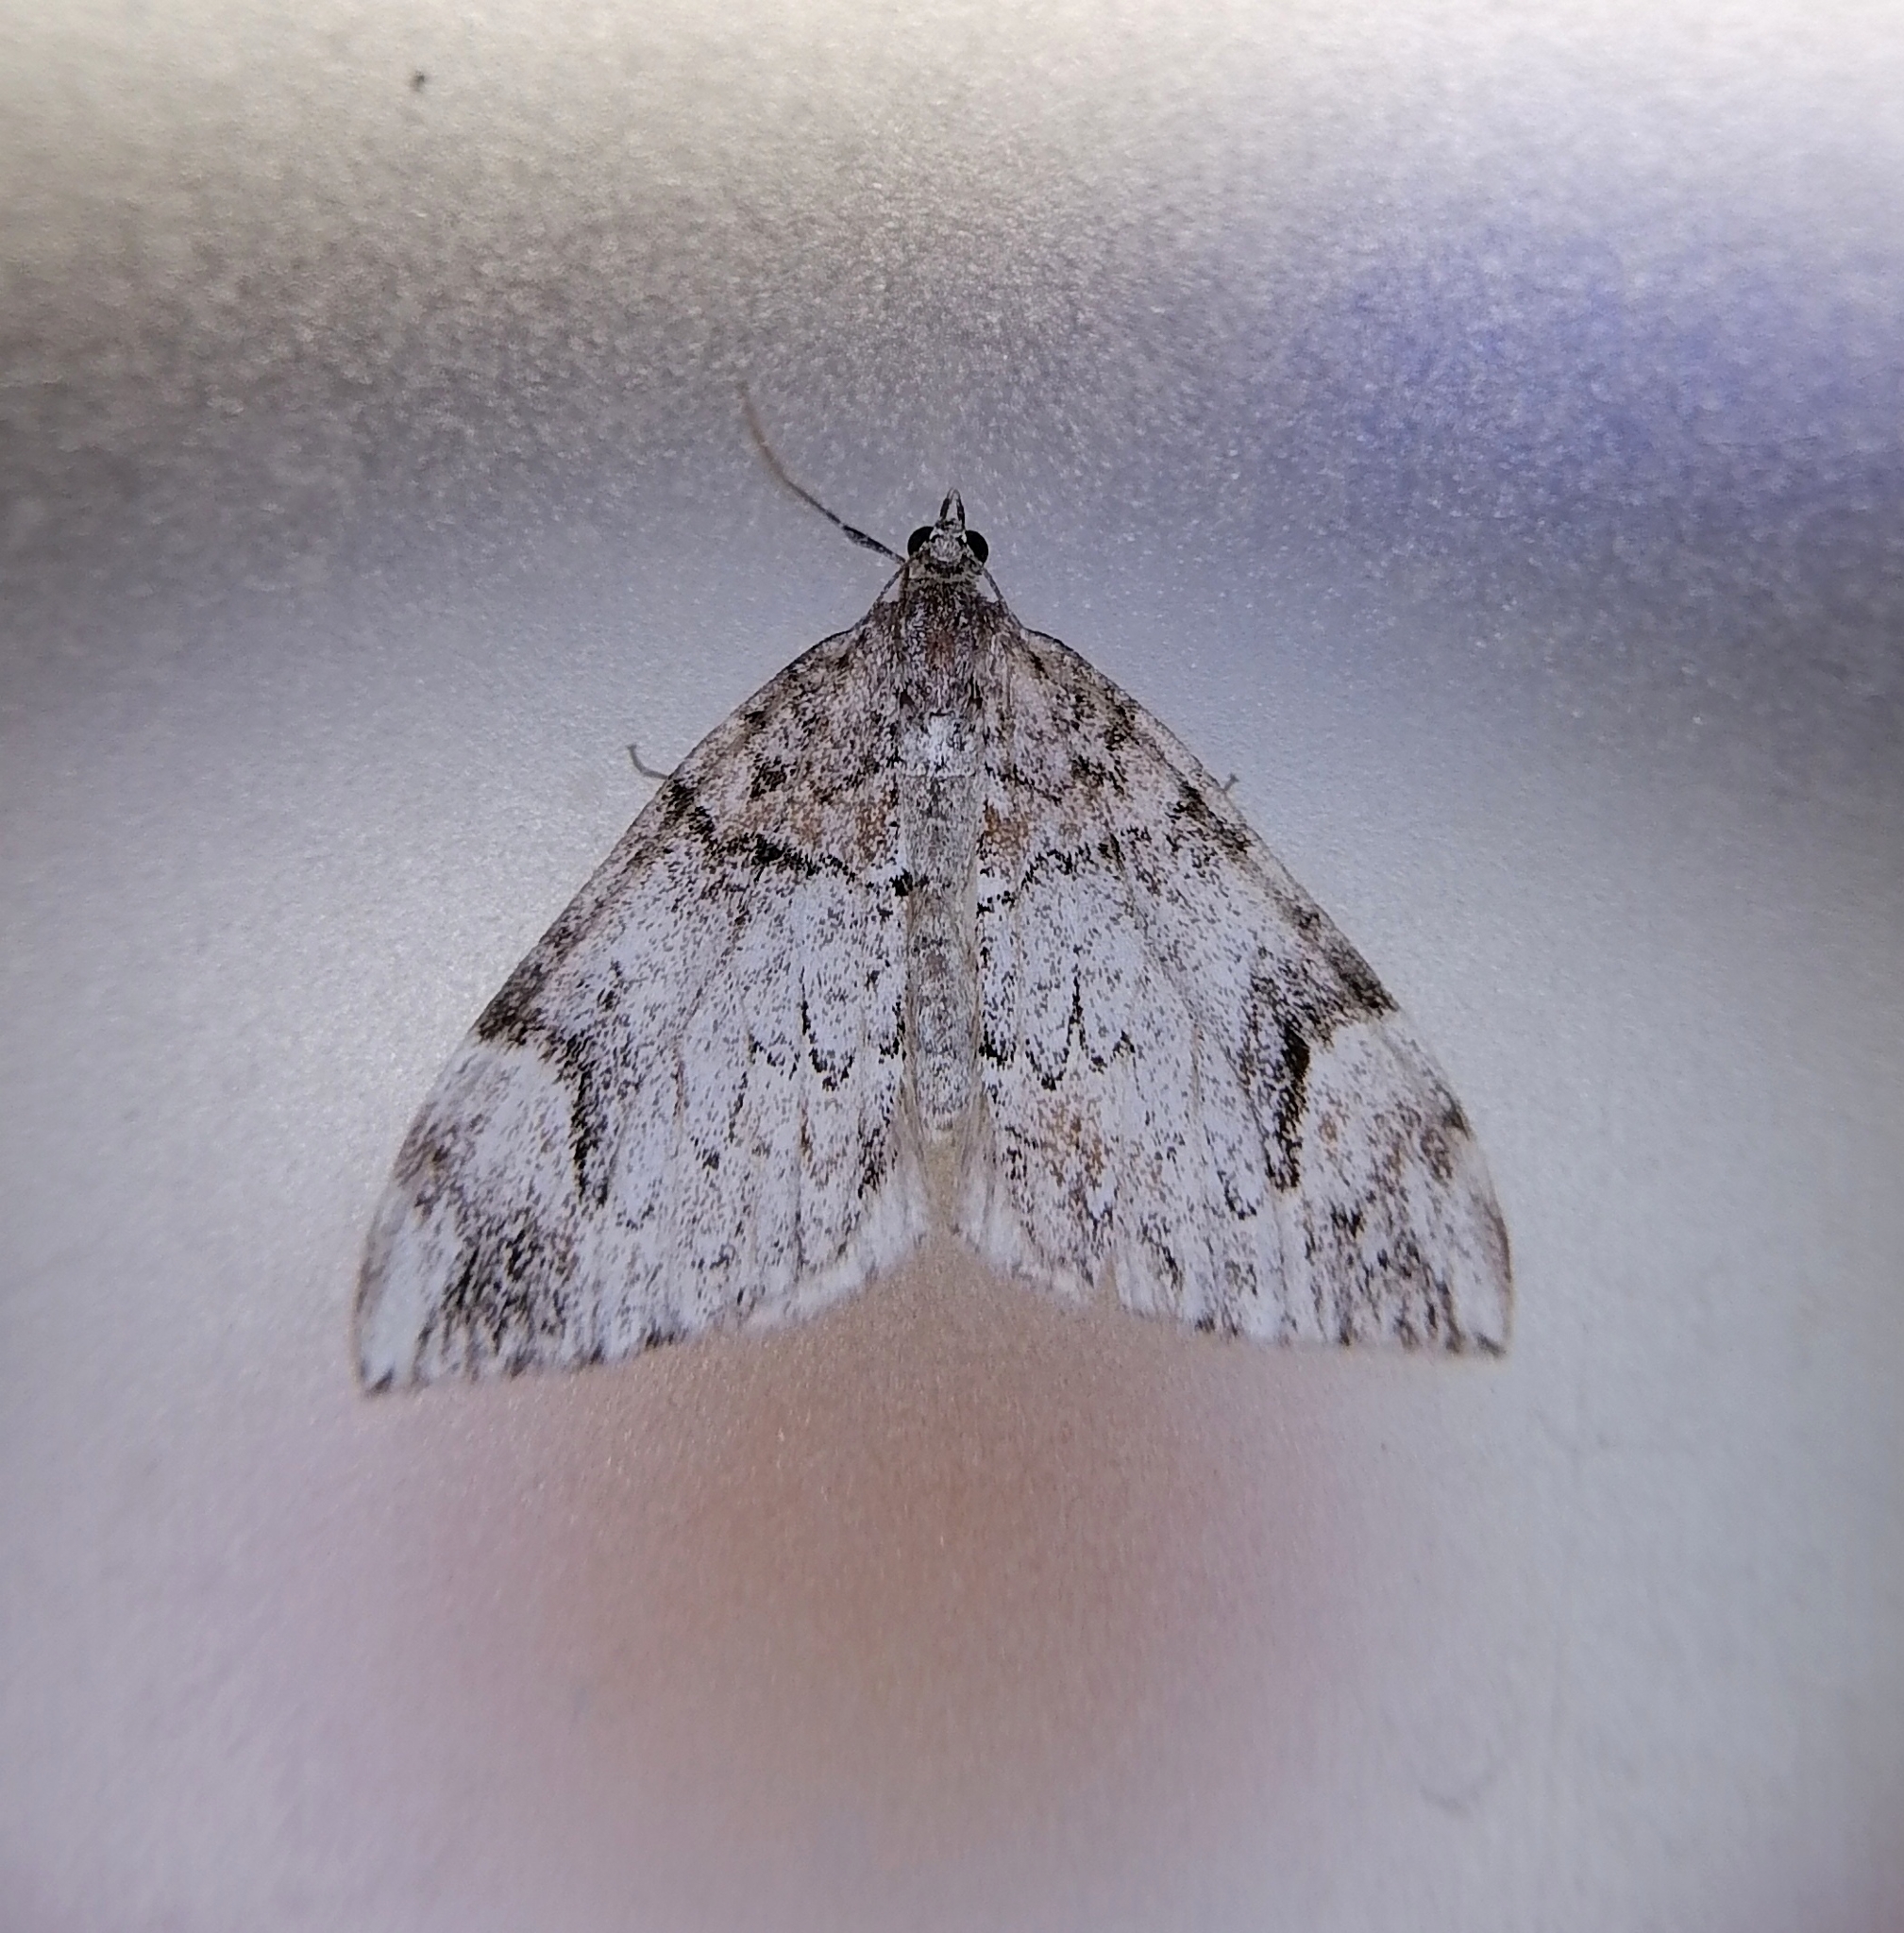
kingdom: Animalia
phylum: Arthropoda
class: Insecta
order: Lepidoptera
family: Geometridae
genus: Dysstroma
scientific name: Dysstroma citrata
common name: Dark marbled carpet
